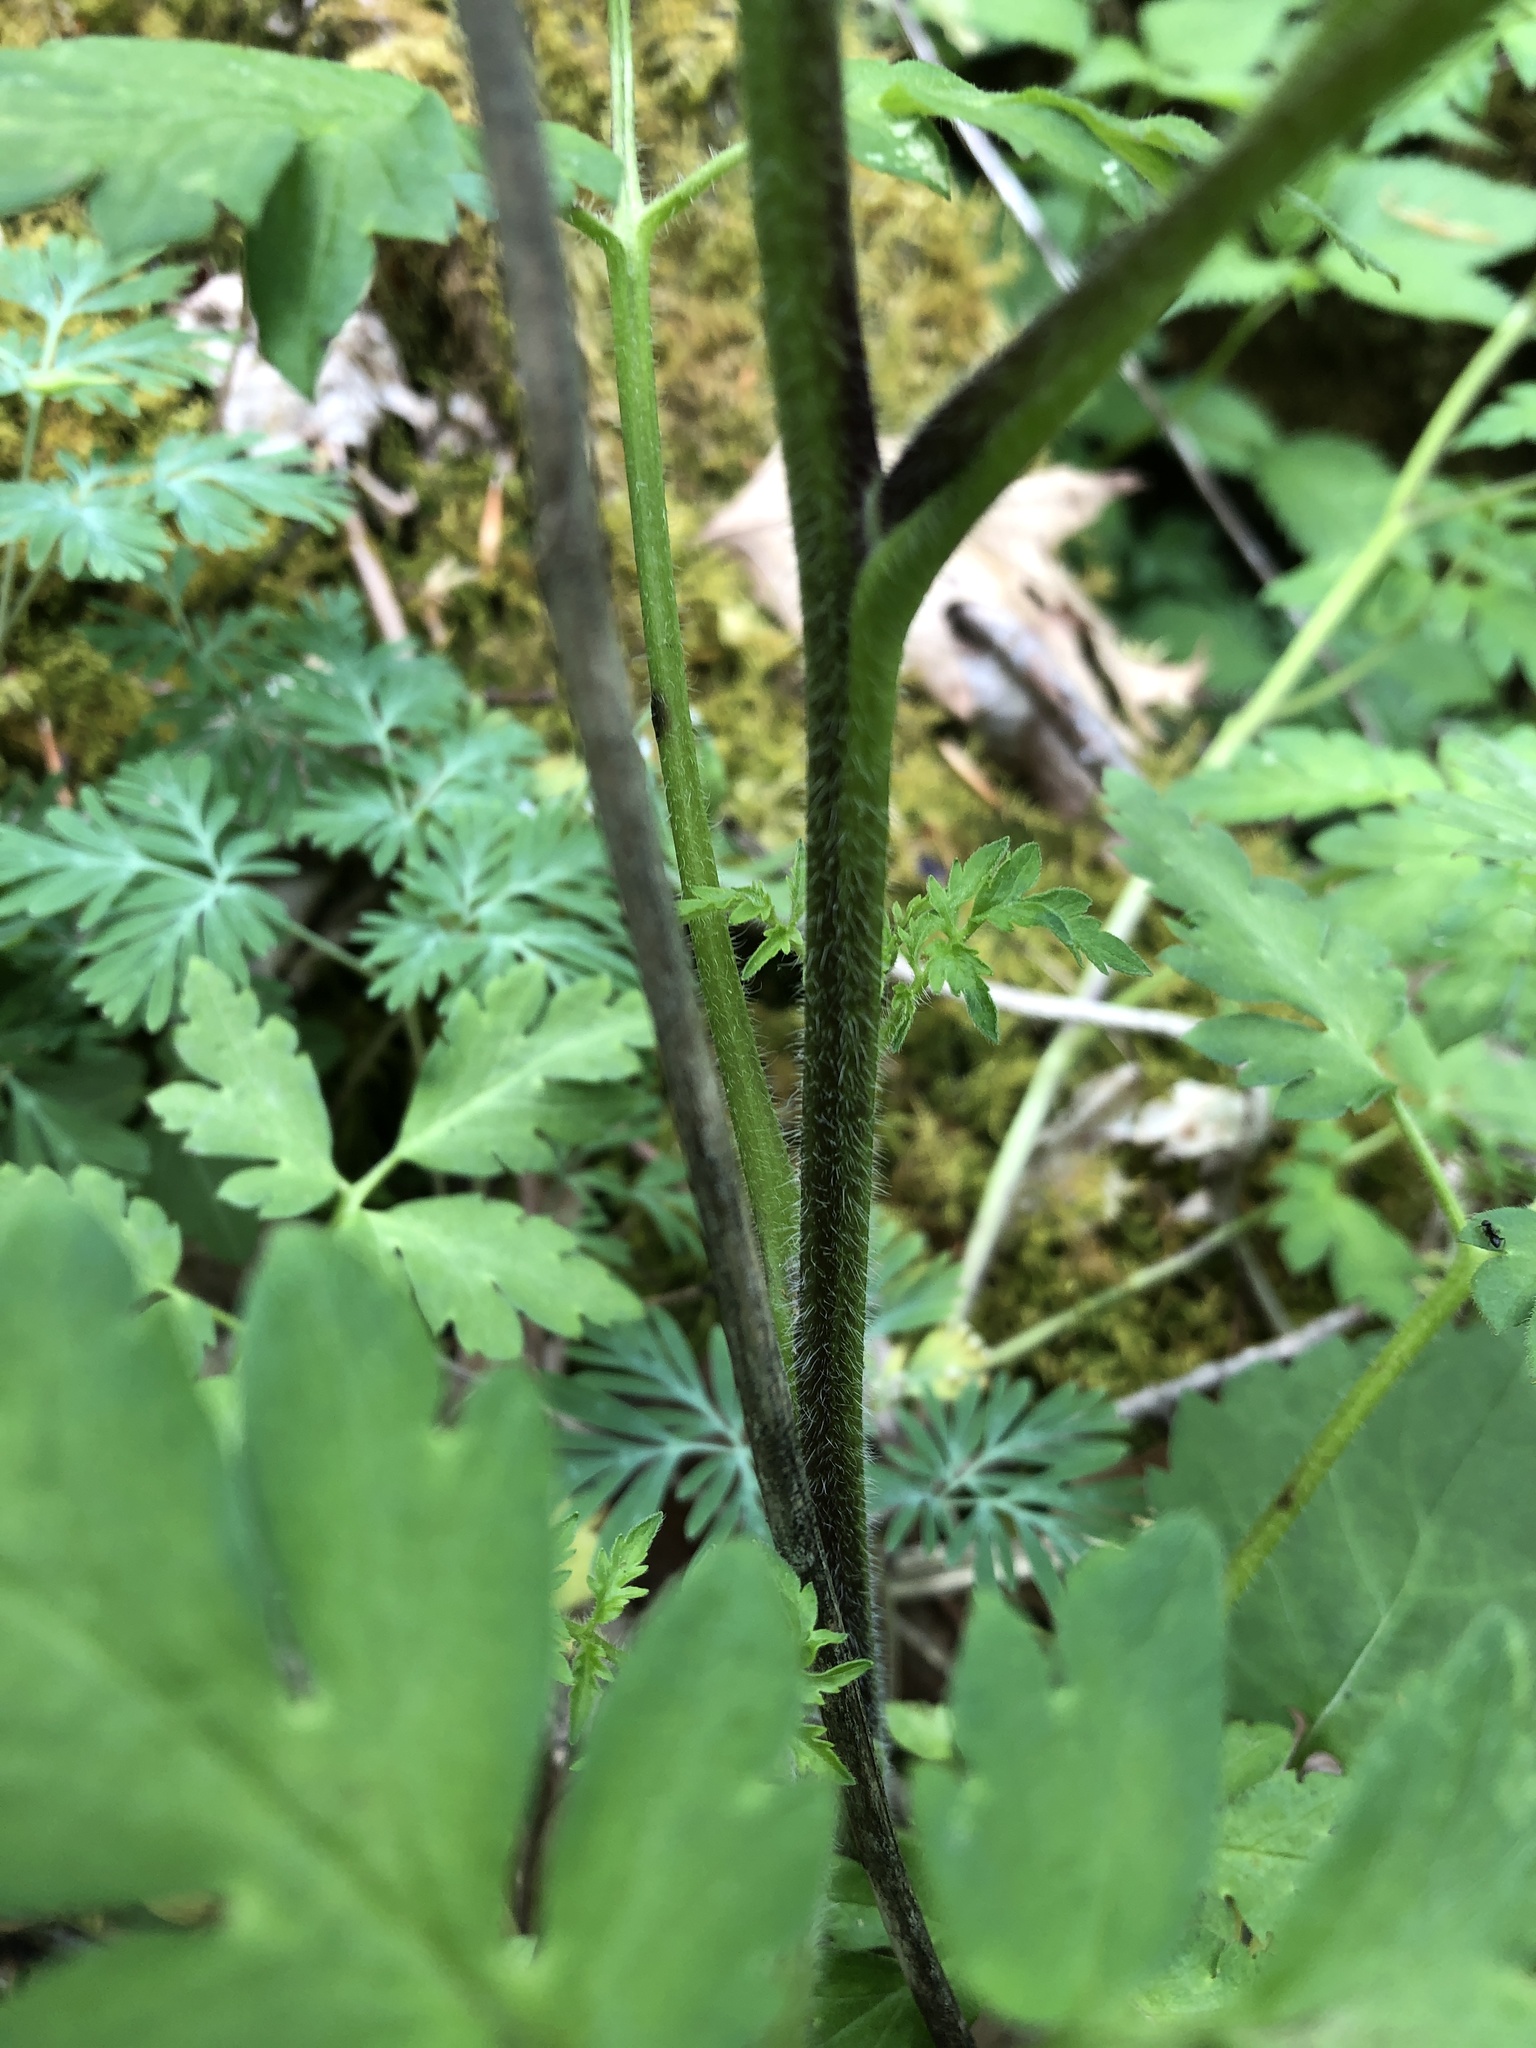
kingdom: Plantae
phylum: Tracheophyta
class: Magnoliopsida
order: Boraginales
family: Hydrophyllaceae
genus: Phacelia
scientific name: Phacelia bipinnatifida
